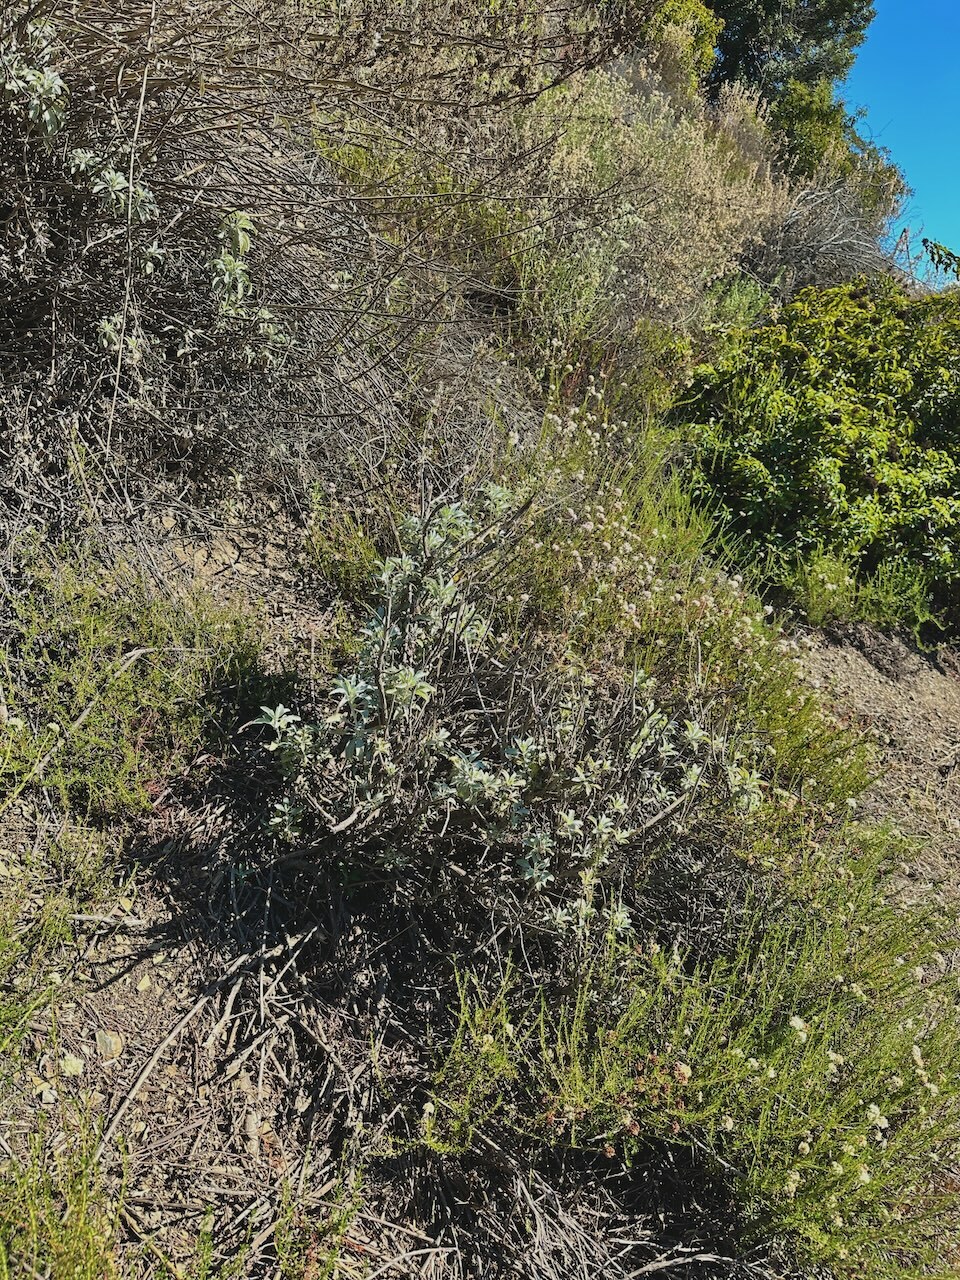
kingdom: Plantae
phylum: Tracheophyta
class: Magnoliopsida
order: Lamiales
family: Lamiaceae
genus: Salvia
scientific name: Salvia apiana
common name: White sage
